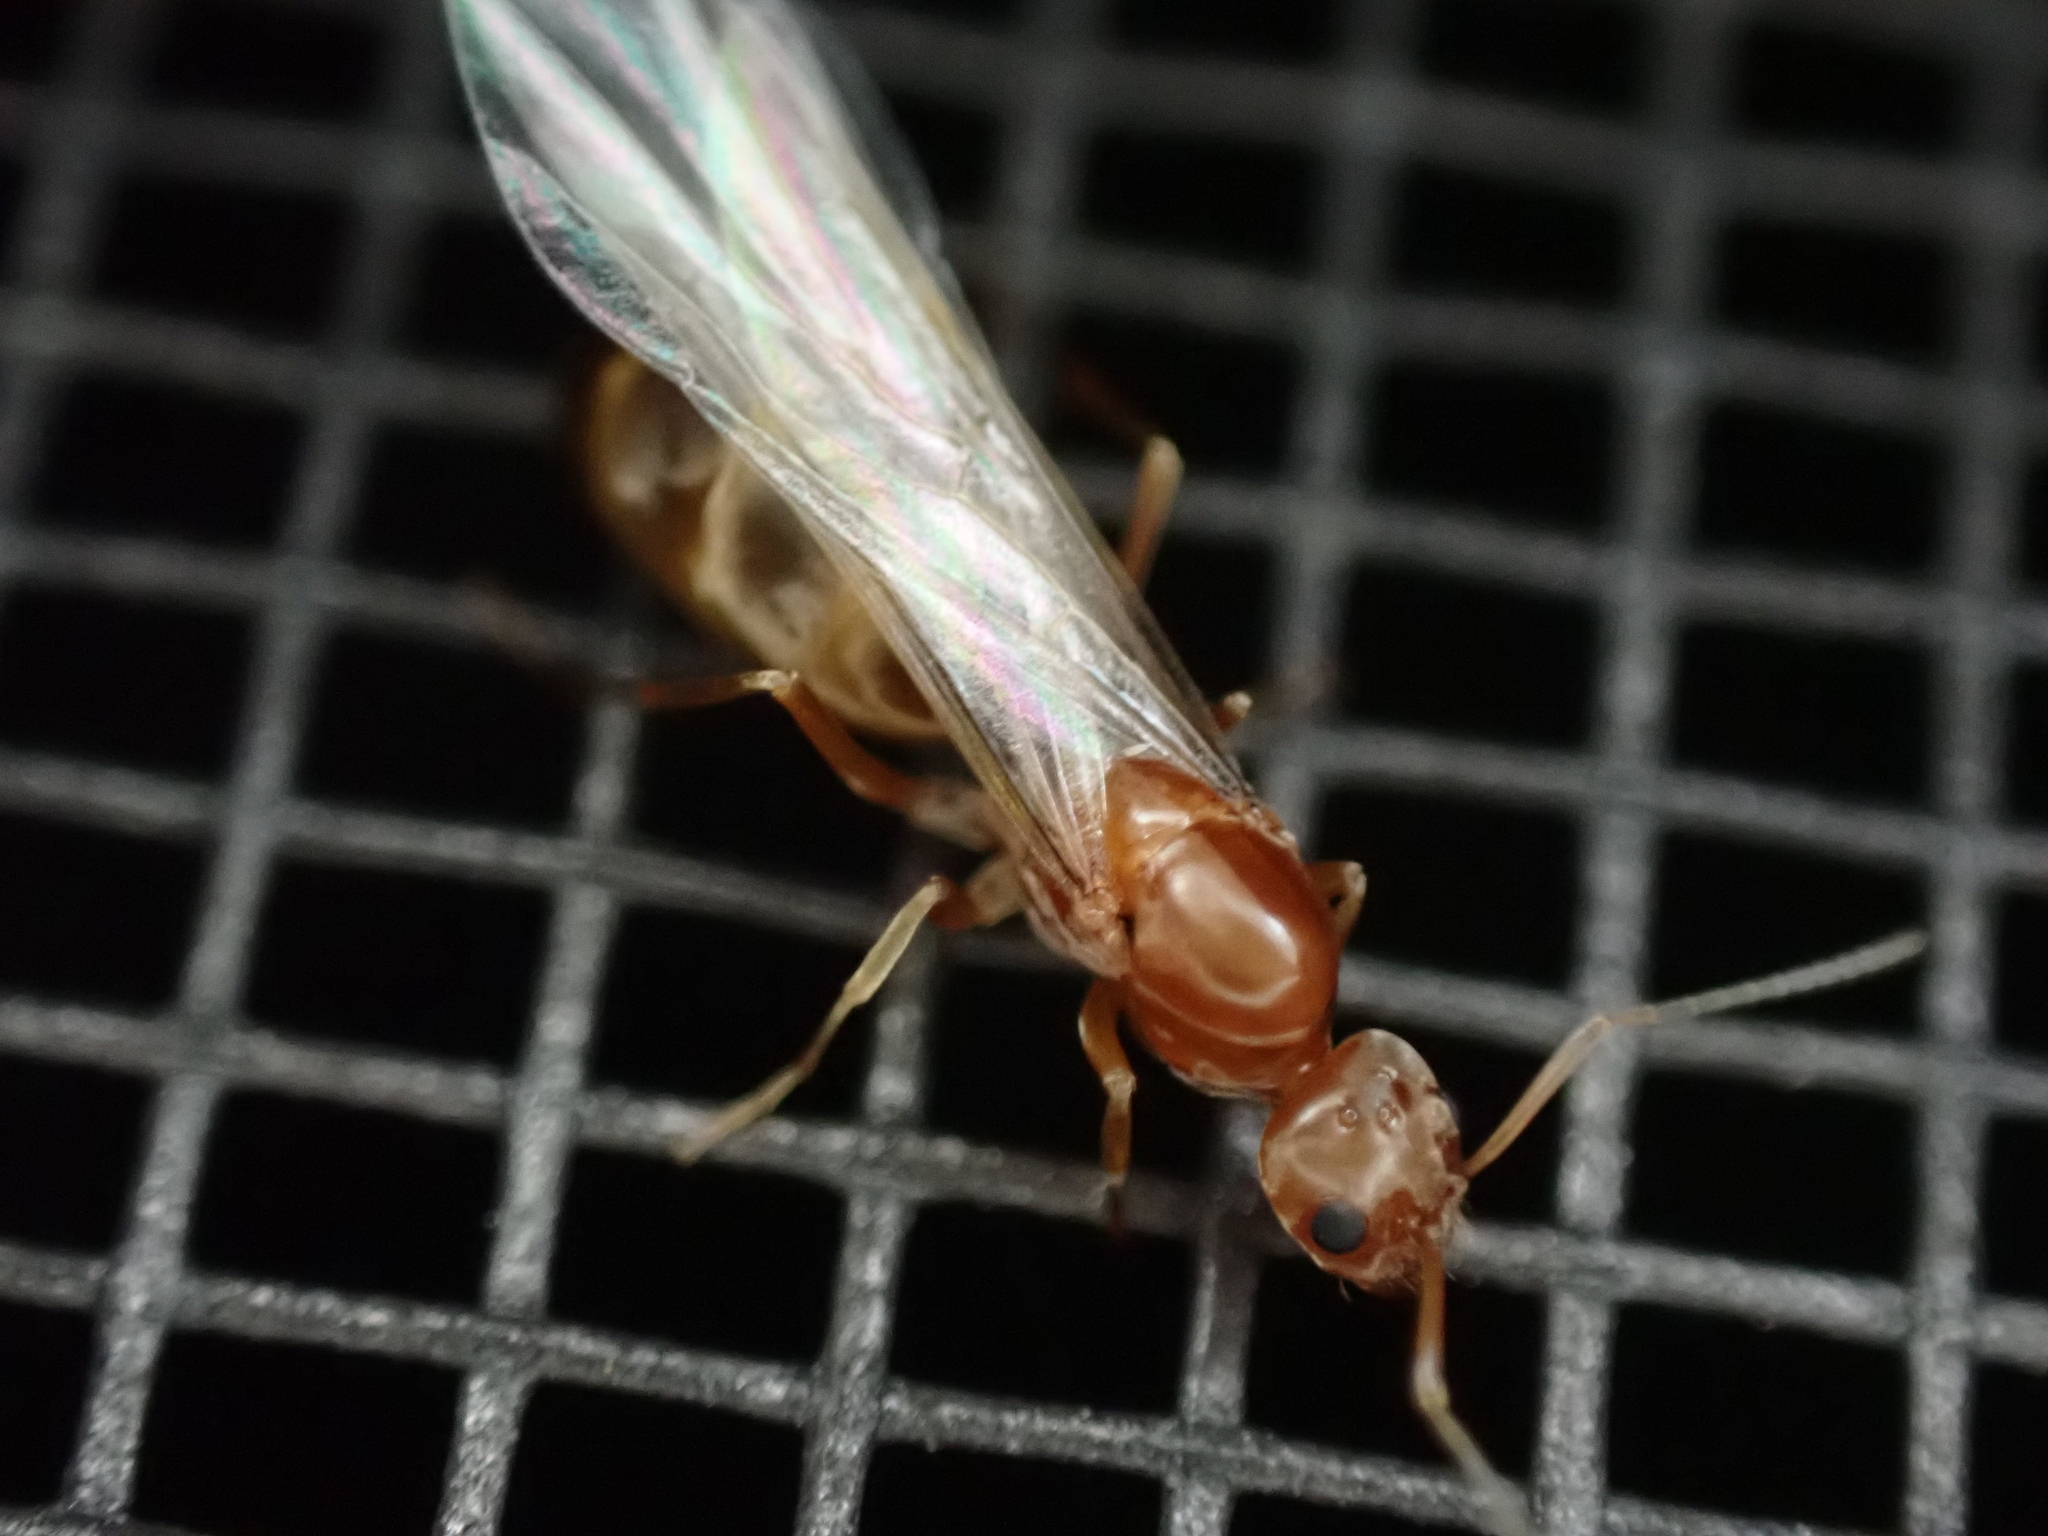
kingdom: Animalia
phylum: Arthropoda
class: Insecta
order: Hymenoptera
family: Formicidae
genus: Dorymyrmex
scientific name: Dorymyrmex bureni
